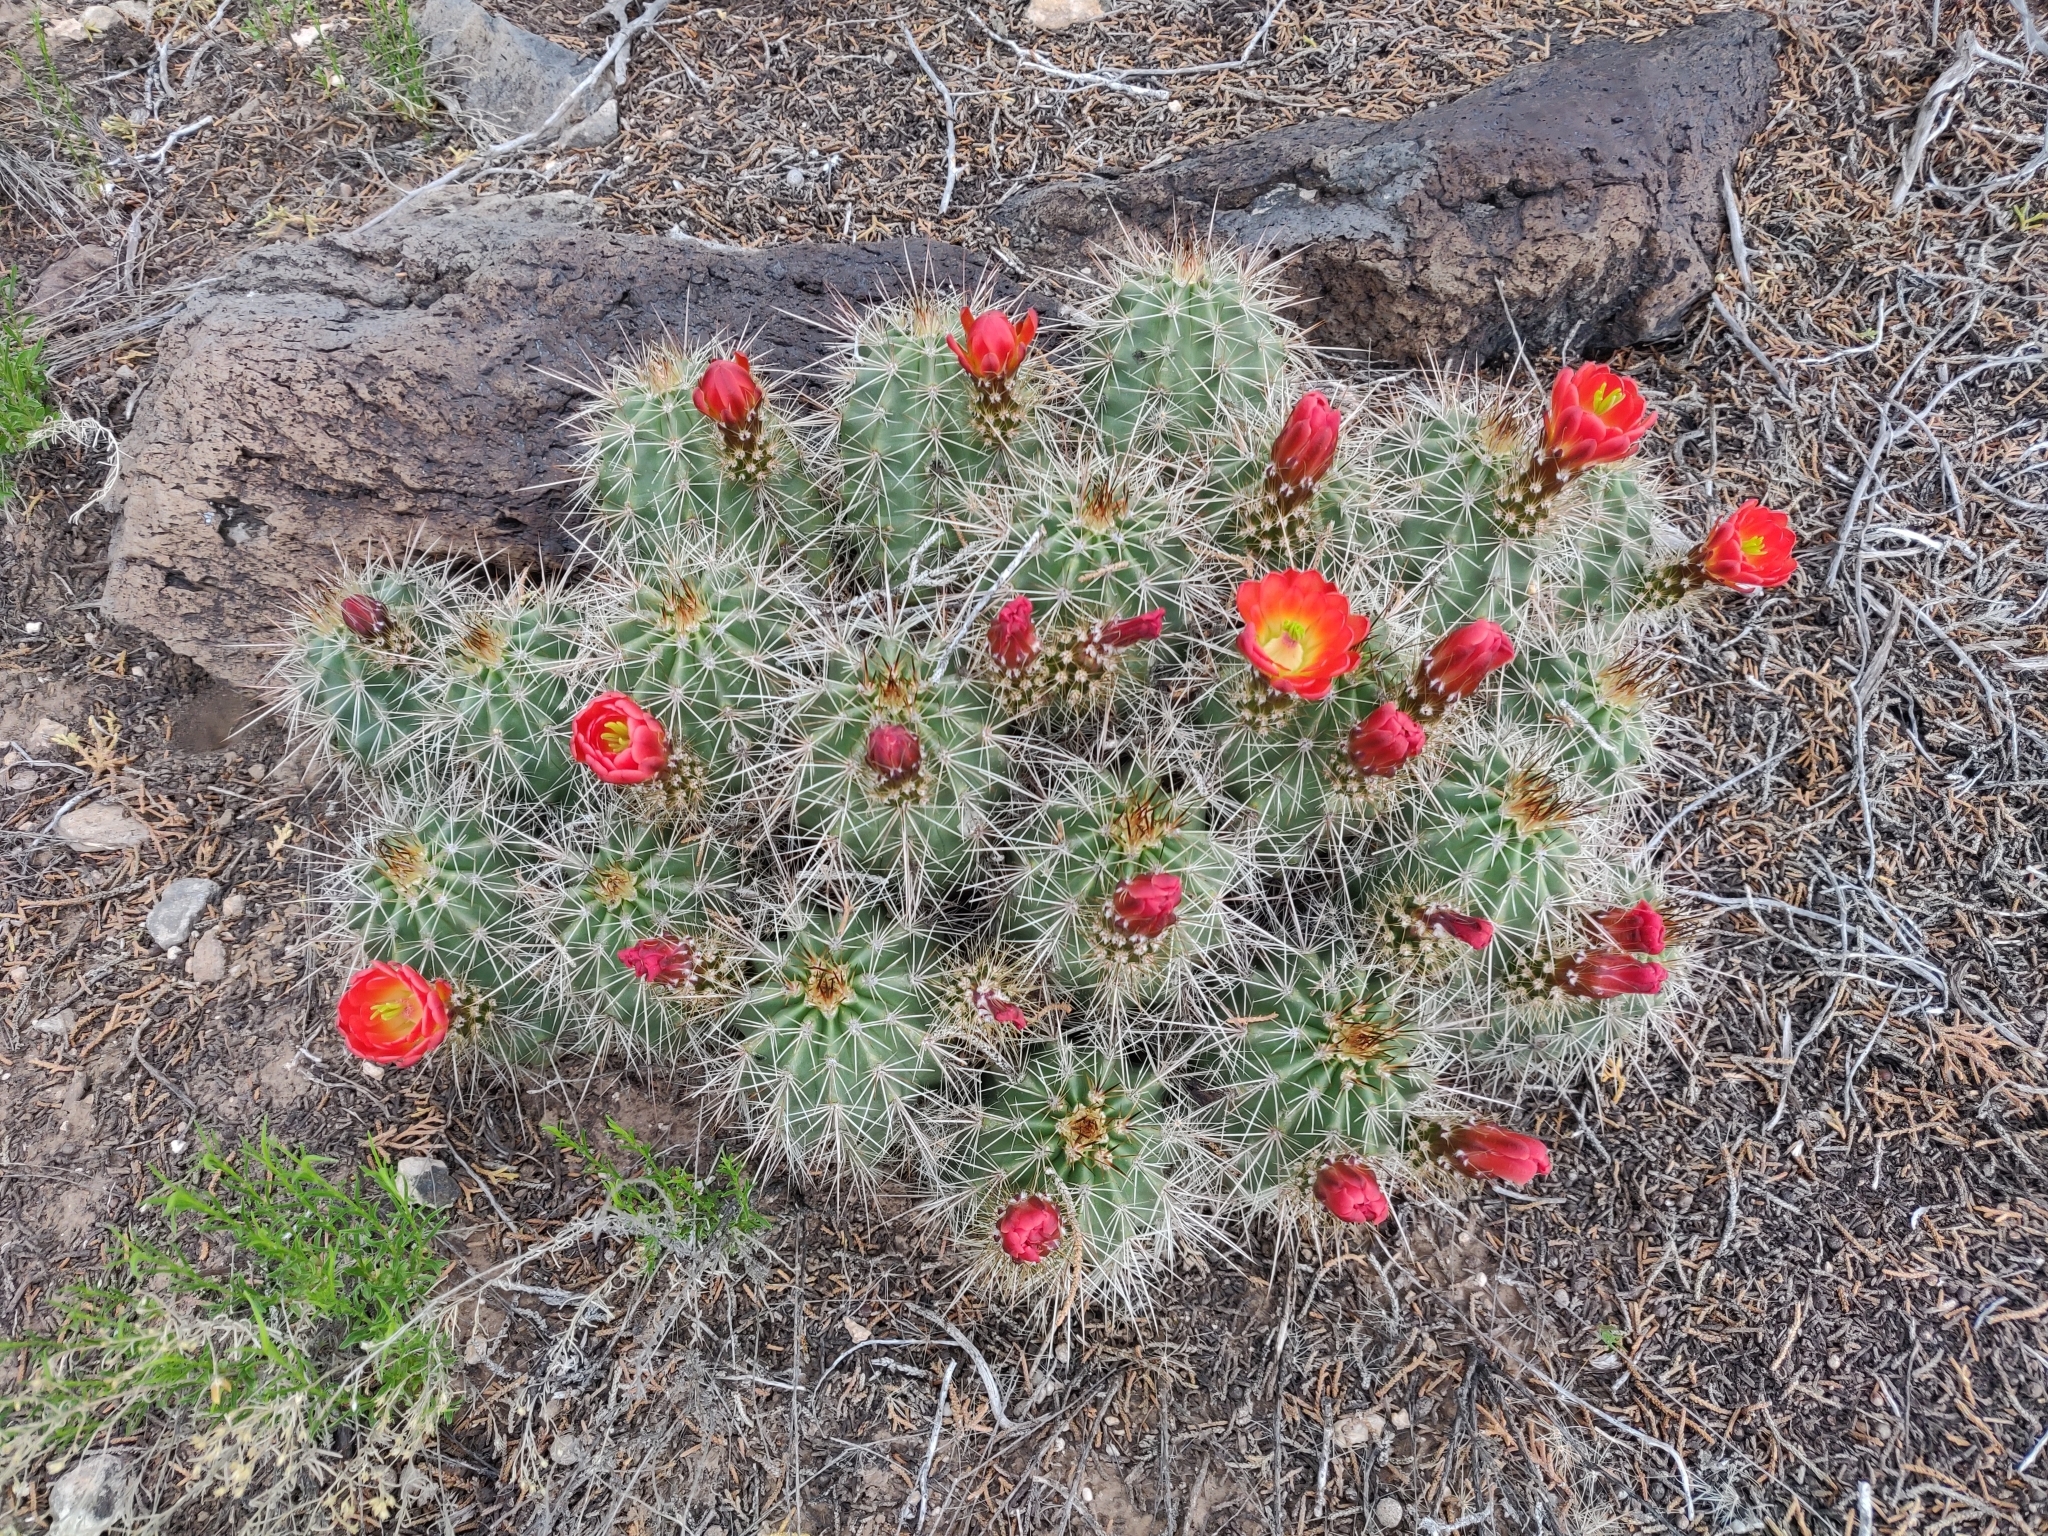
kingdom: Plantae
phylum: Tracheophyta
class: Magnoliopsida
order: Caryophyllales
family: Cactaceae
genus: Echinocereus
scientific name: Echinocereus coccineus
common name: Scarlet hedgehog cactus
